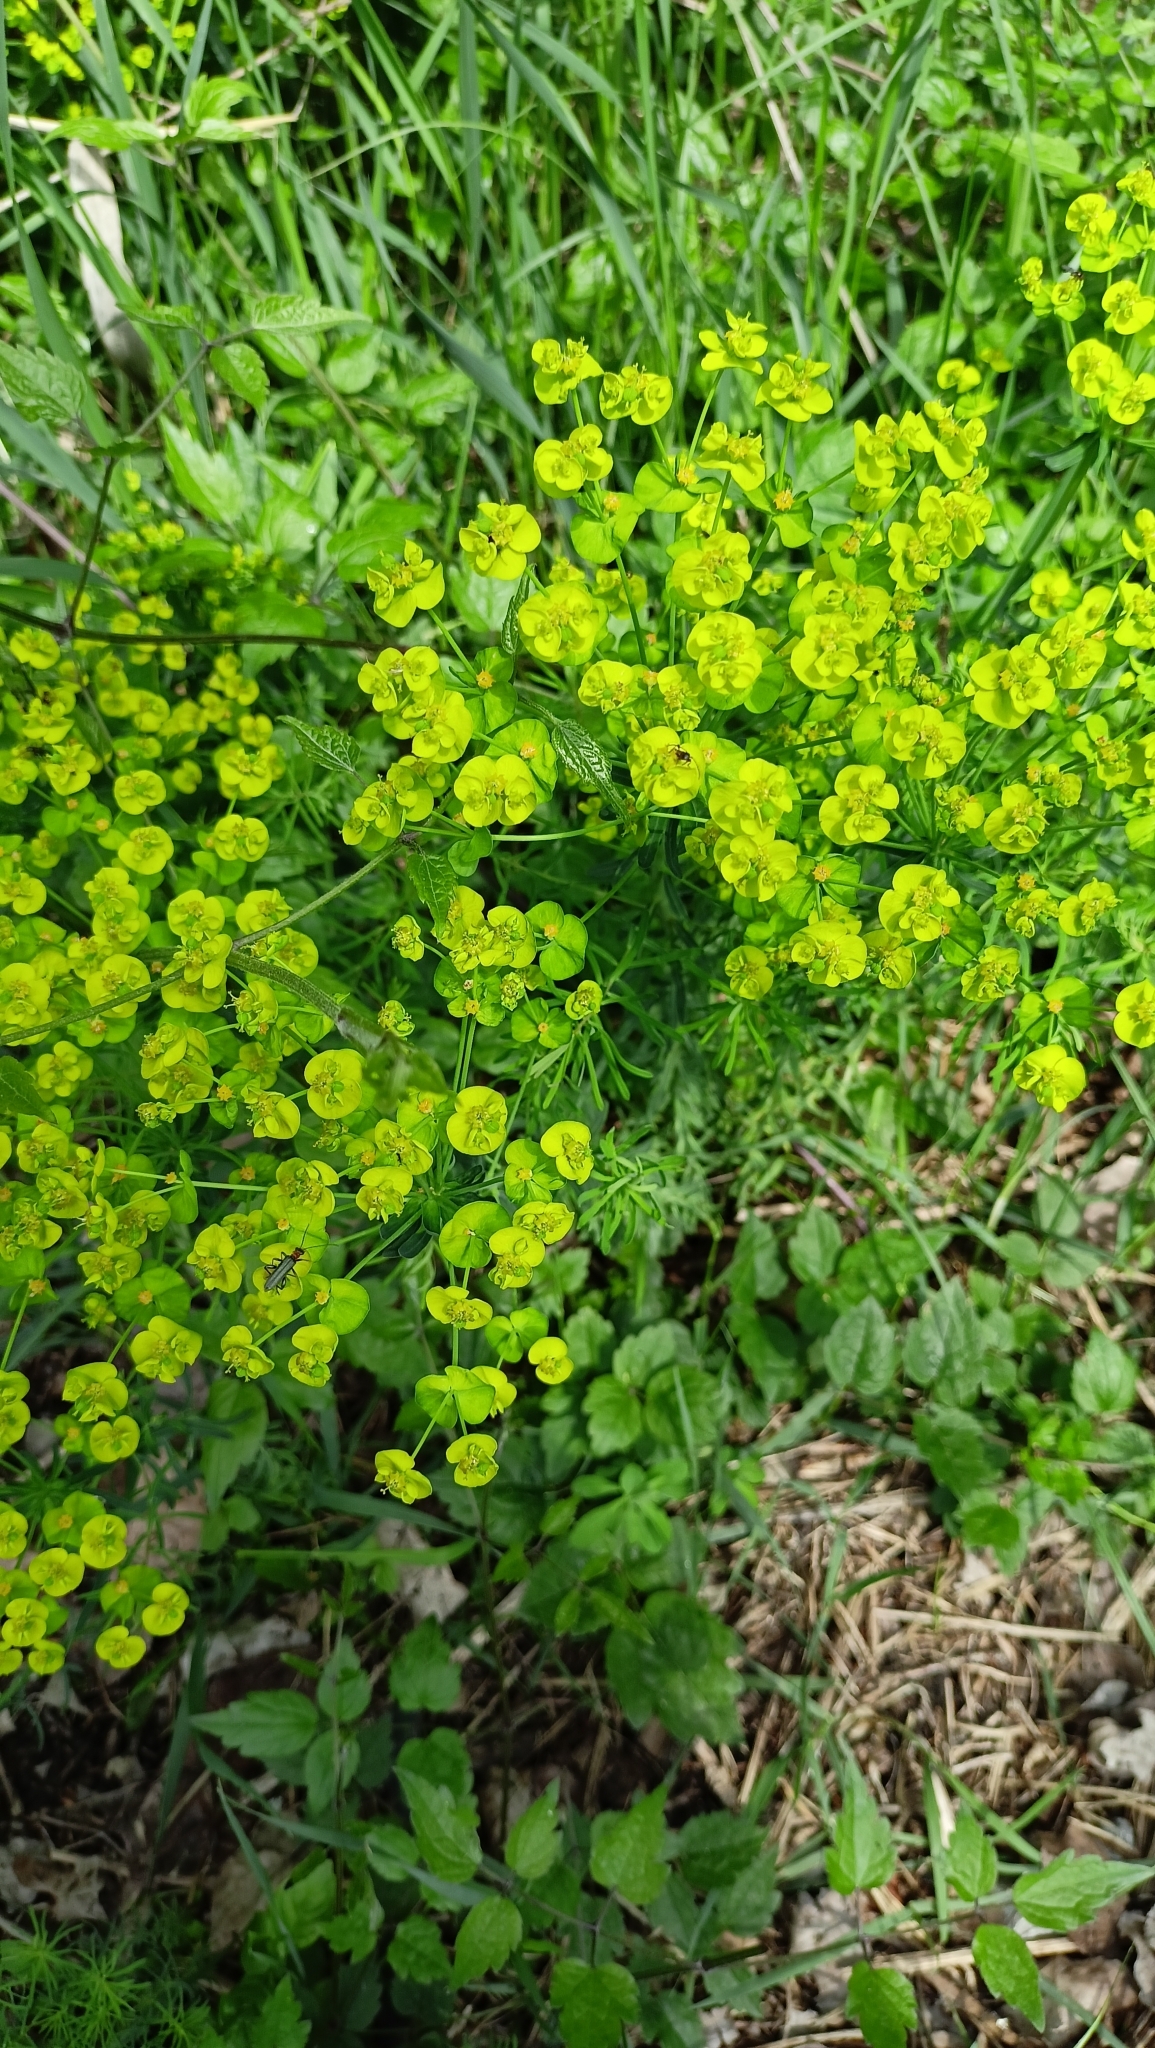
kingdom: Plantae
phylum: Tracheophyta
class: Magnoliopsida
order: Malpighiales
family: Euphorbiaceae
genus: Euphorbia
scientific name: Euphorbia cyparissias
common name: Cypress spurge
